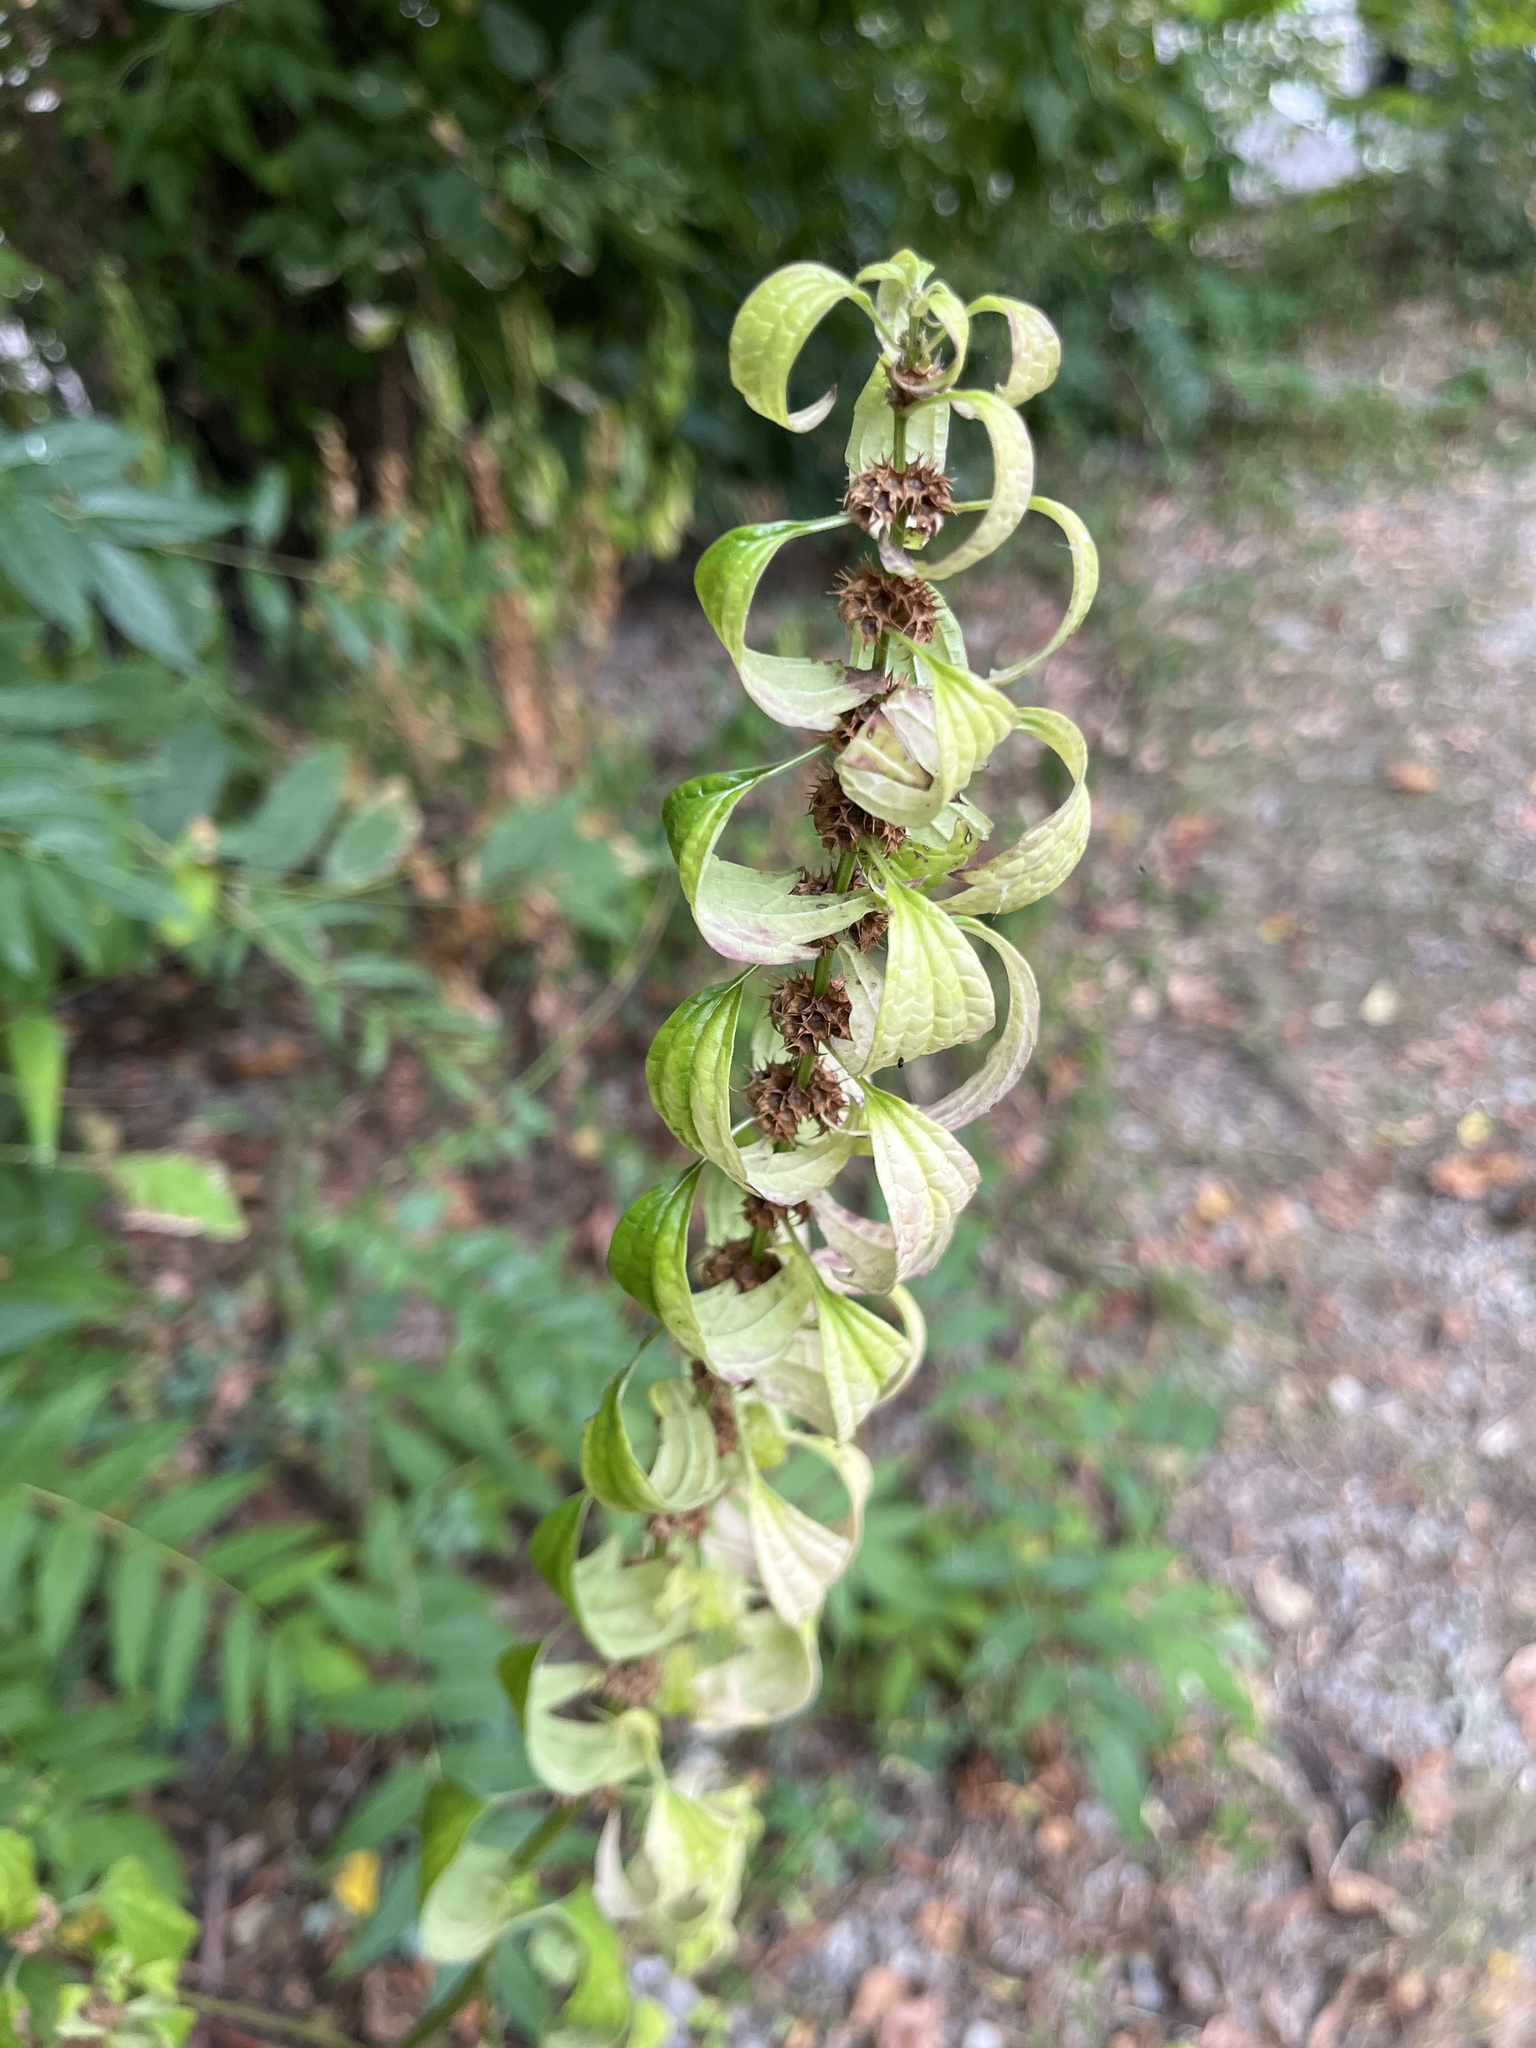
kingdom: Plantae
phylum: Tracheophyta
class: Magnoliopsida
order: Lamiales
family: Lamiaceae
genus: Leonurus
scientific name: Leonurus cardiaca
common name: Motherwort
